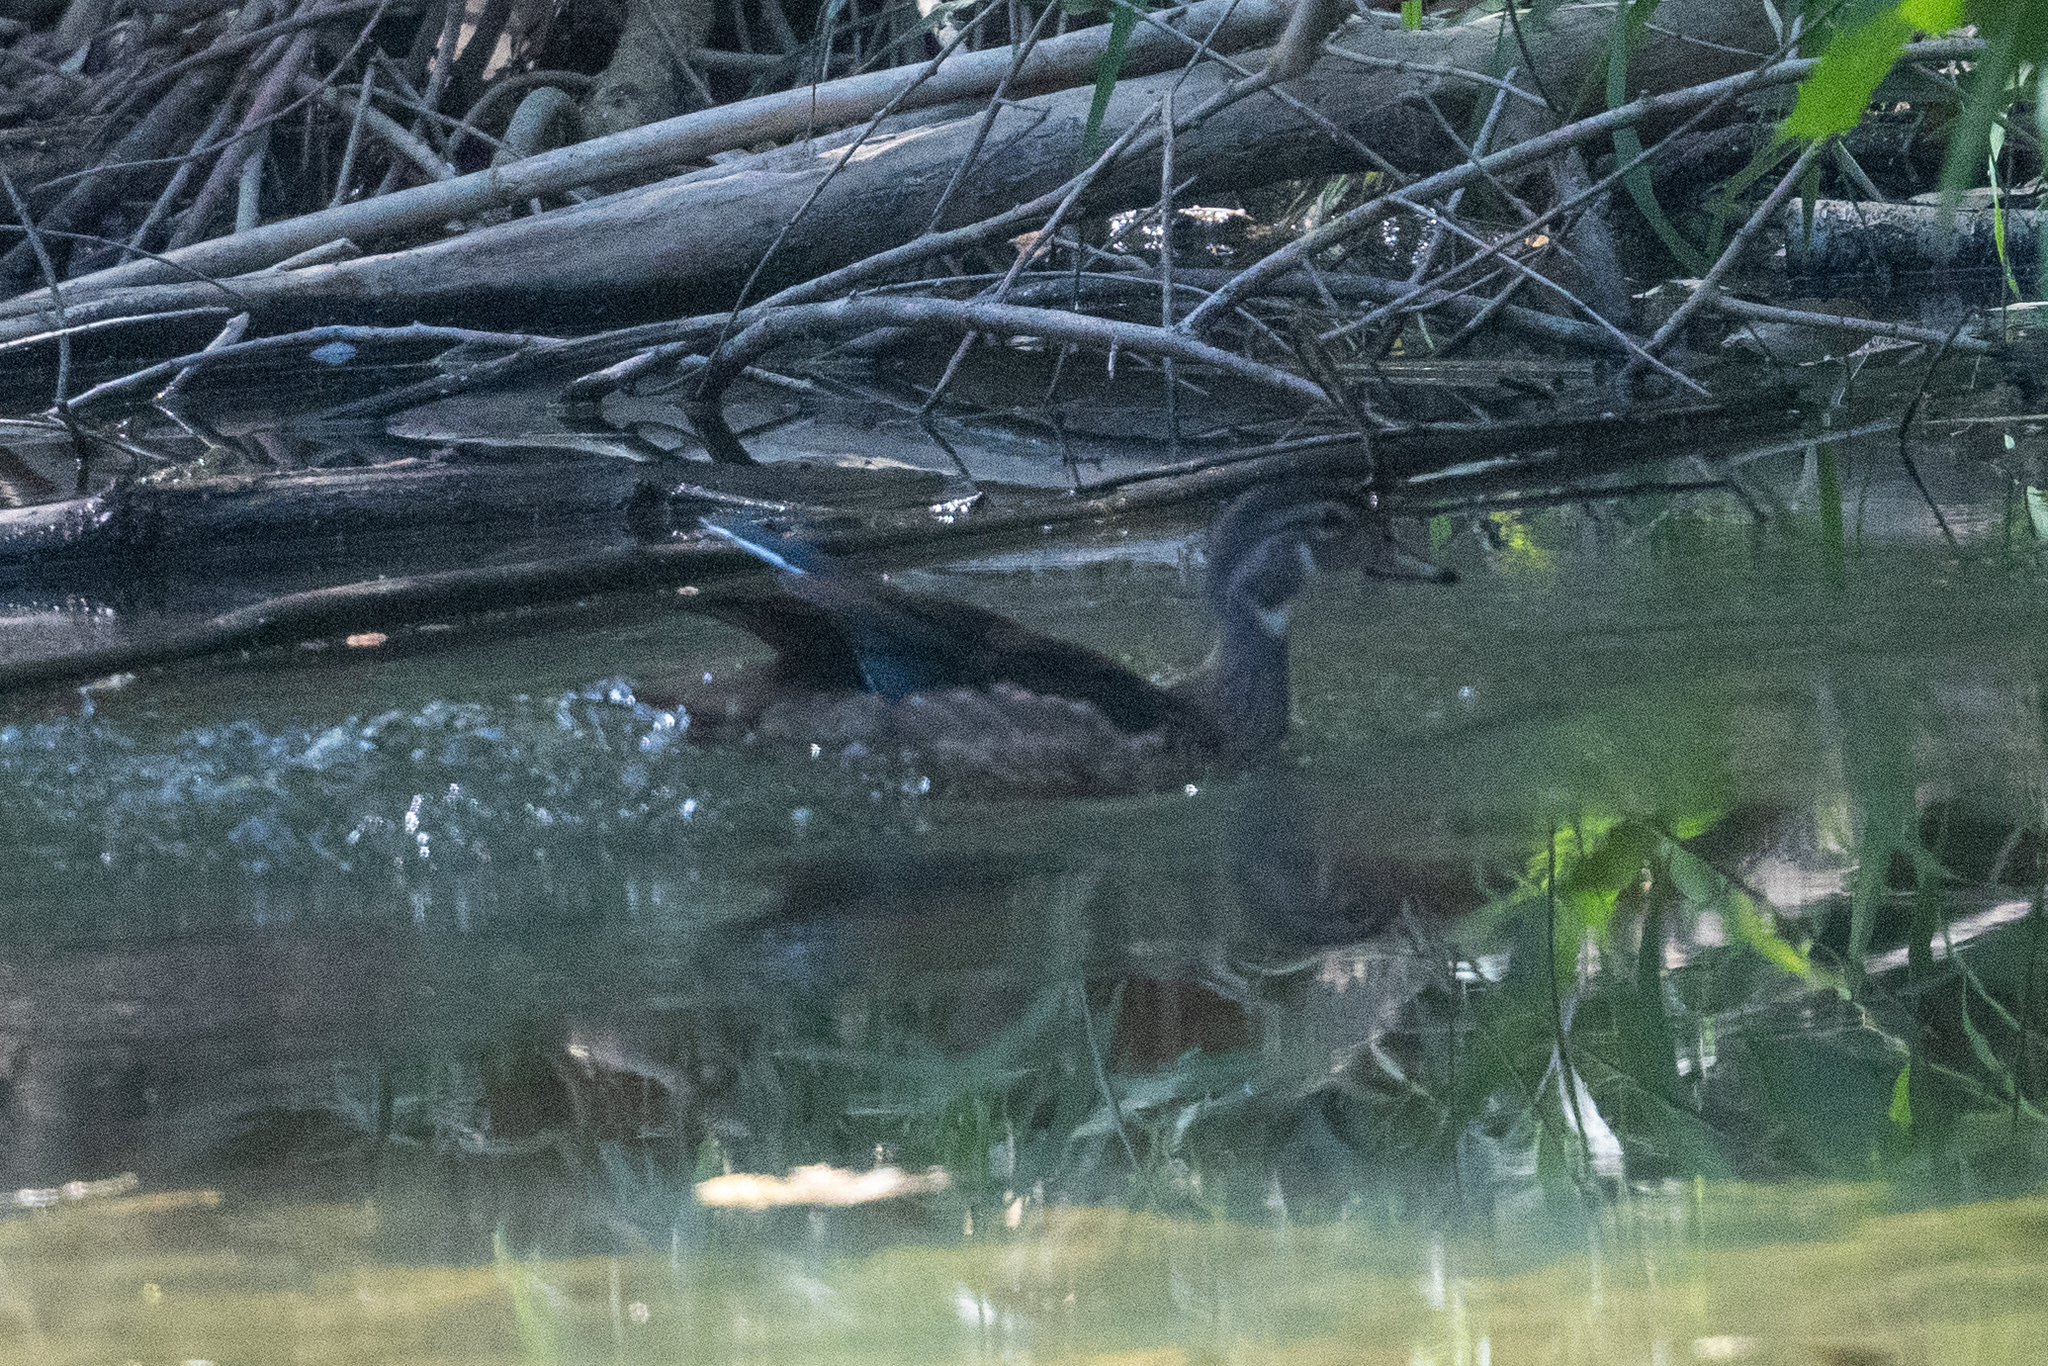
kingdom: Animalia
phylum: Chordata
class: Aves
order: Anseriformes
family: Anatidae
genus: Aix
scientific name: Aix sponsa
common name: Wood duck
